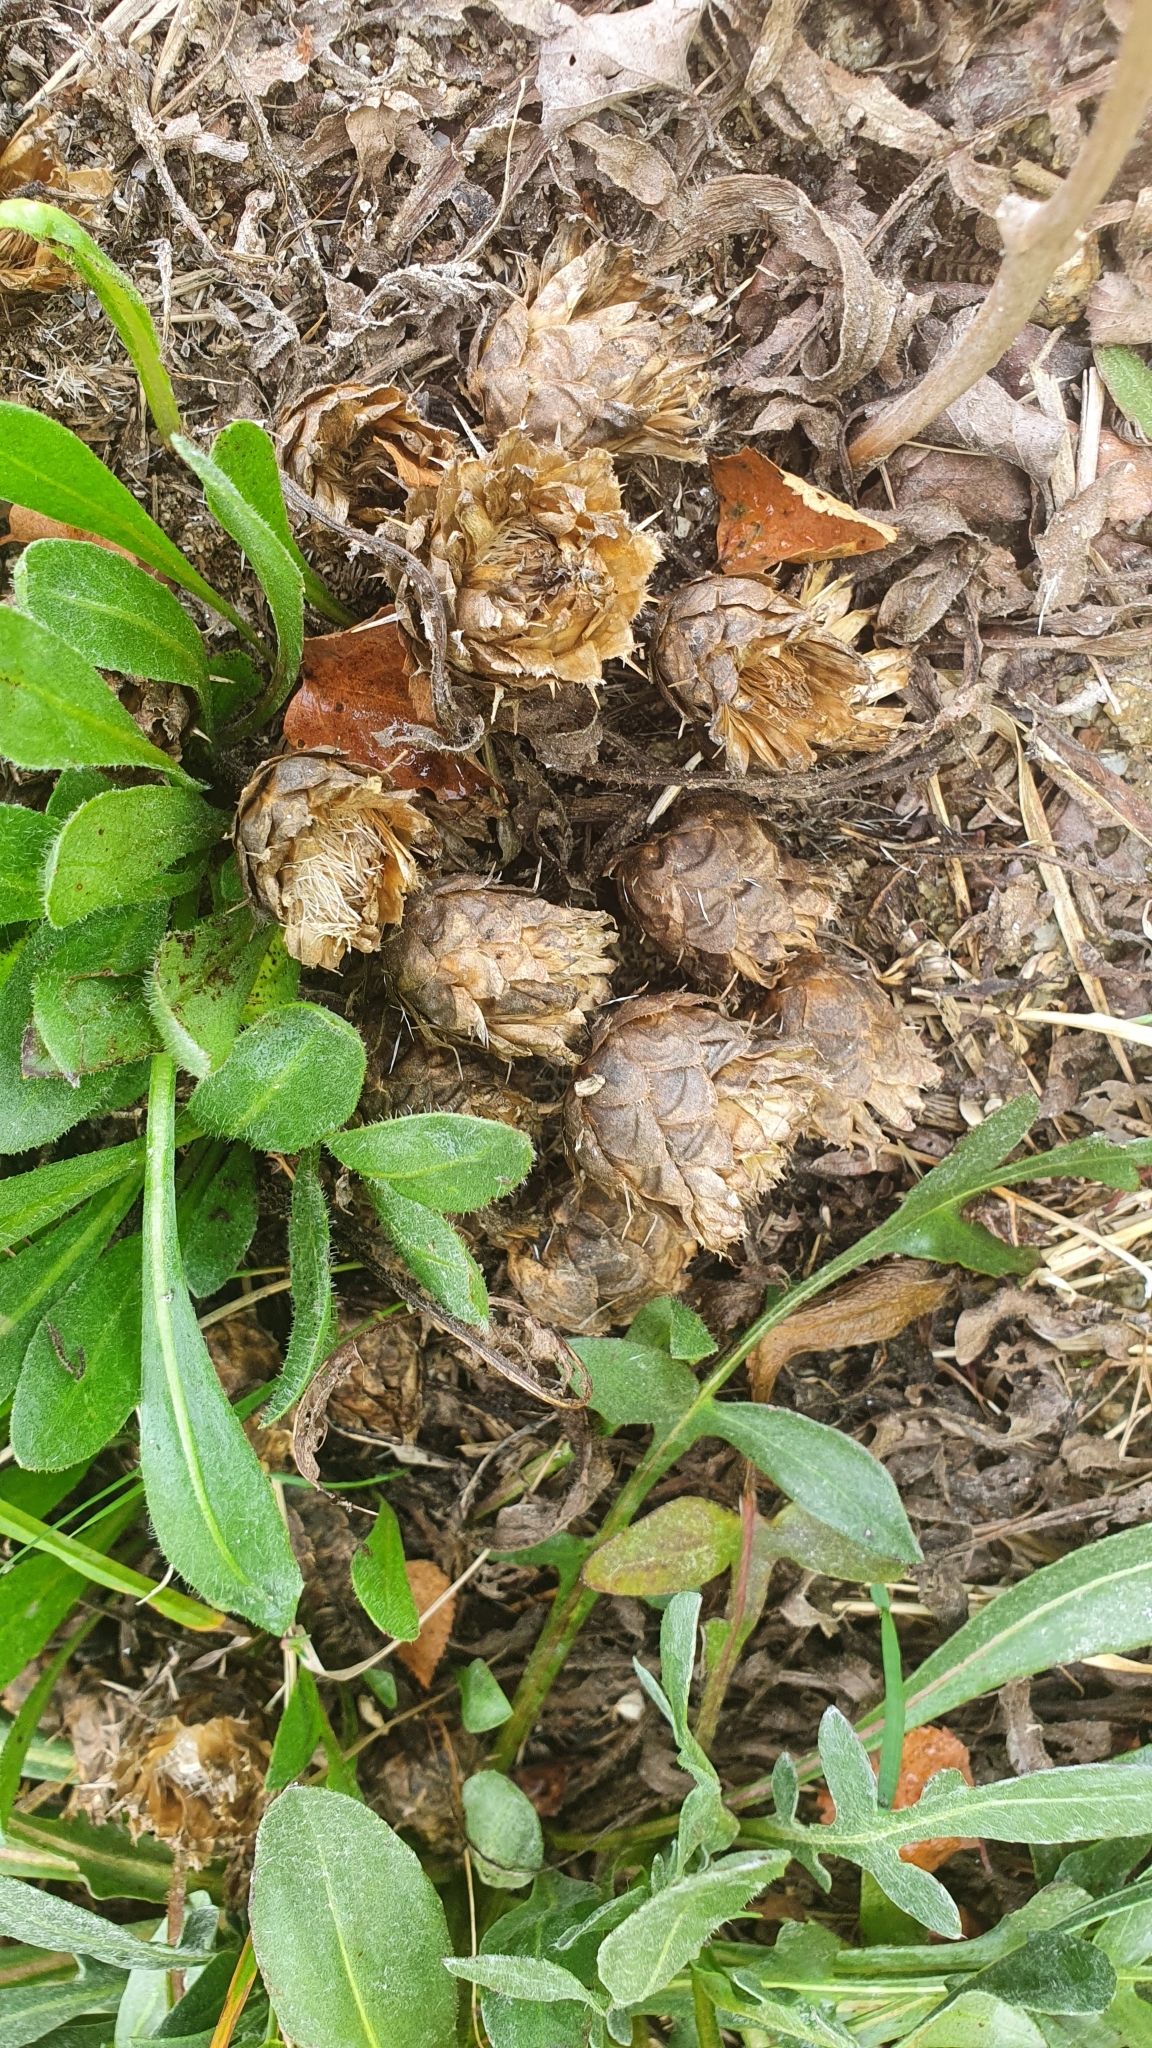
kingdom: Plantae
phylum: Tracheophyta
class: Magnoliopsida
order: Asterales
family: Asteraceae
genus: Centaurea
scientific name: Centaurea ultreiae
